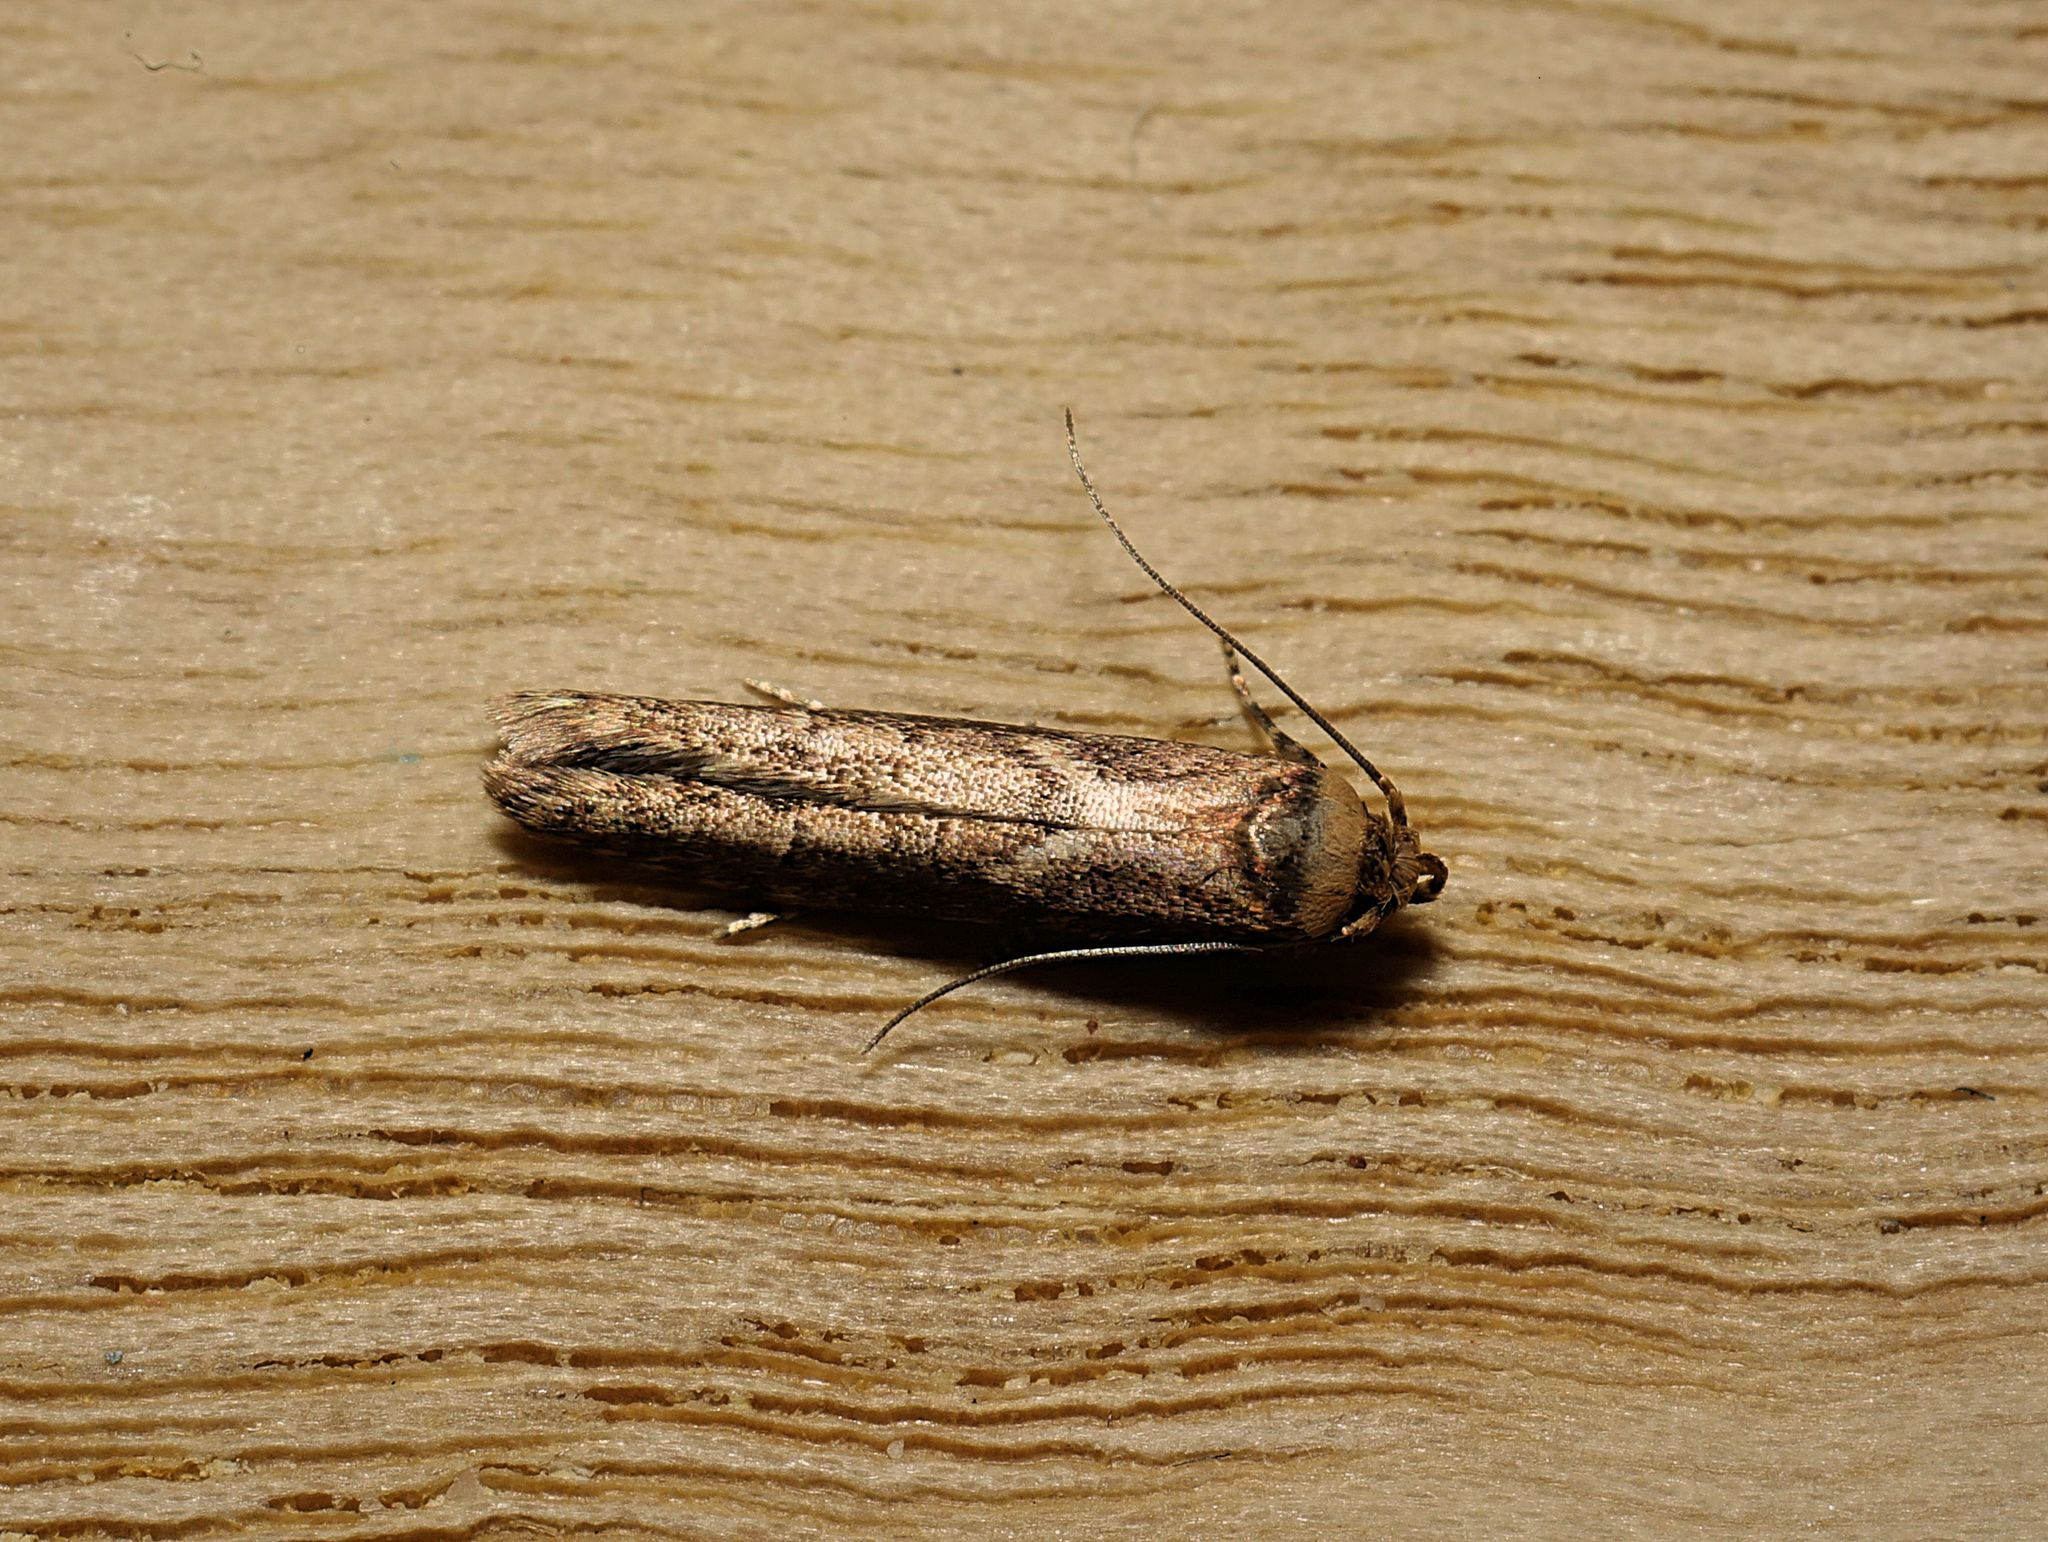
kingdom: Animalia
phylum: Arthropoda
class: Insecta
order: Lepidoptera
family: Blastobasidae
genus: Blastobasis
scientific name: Blastobasis adustella
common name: Dingy dowd
